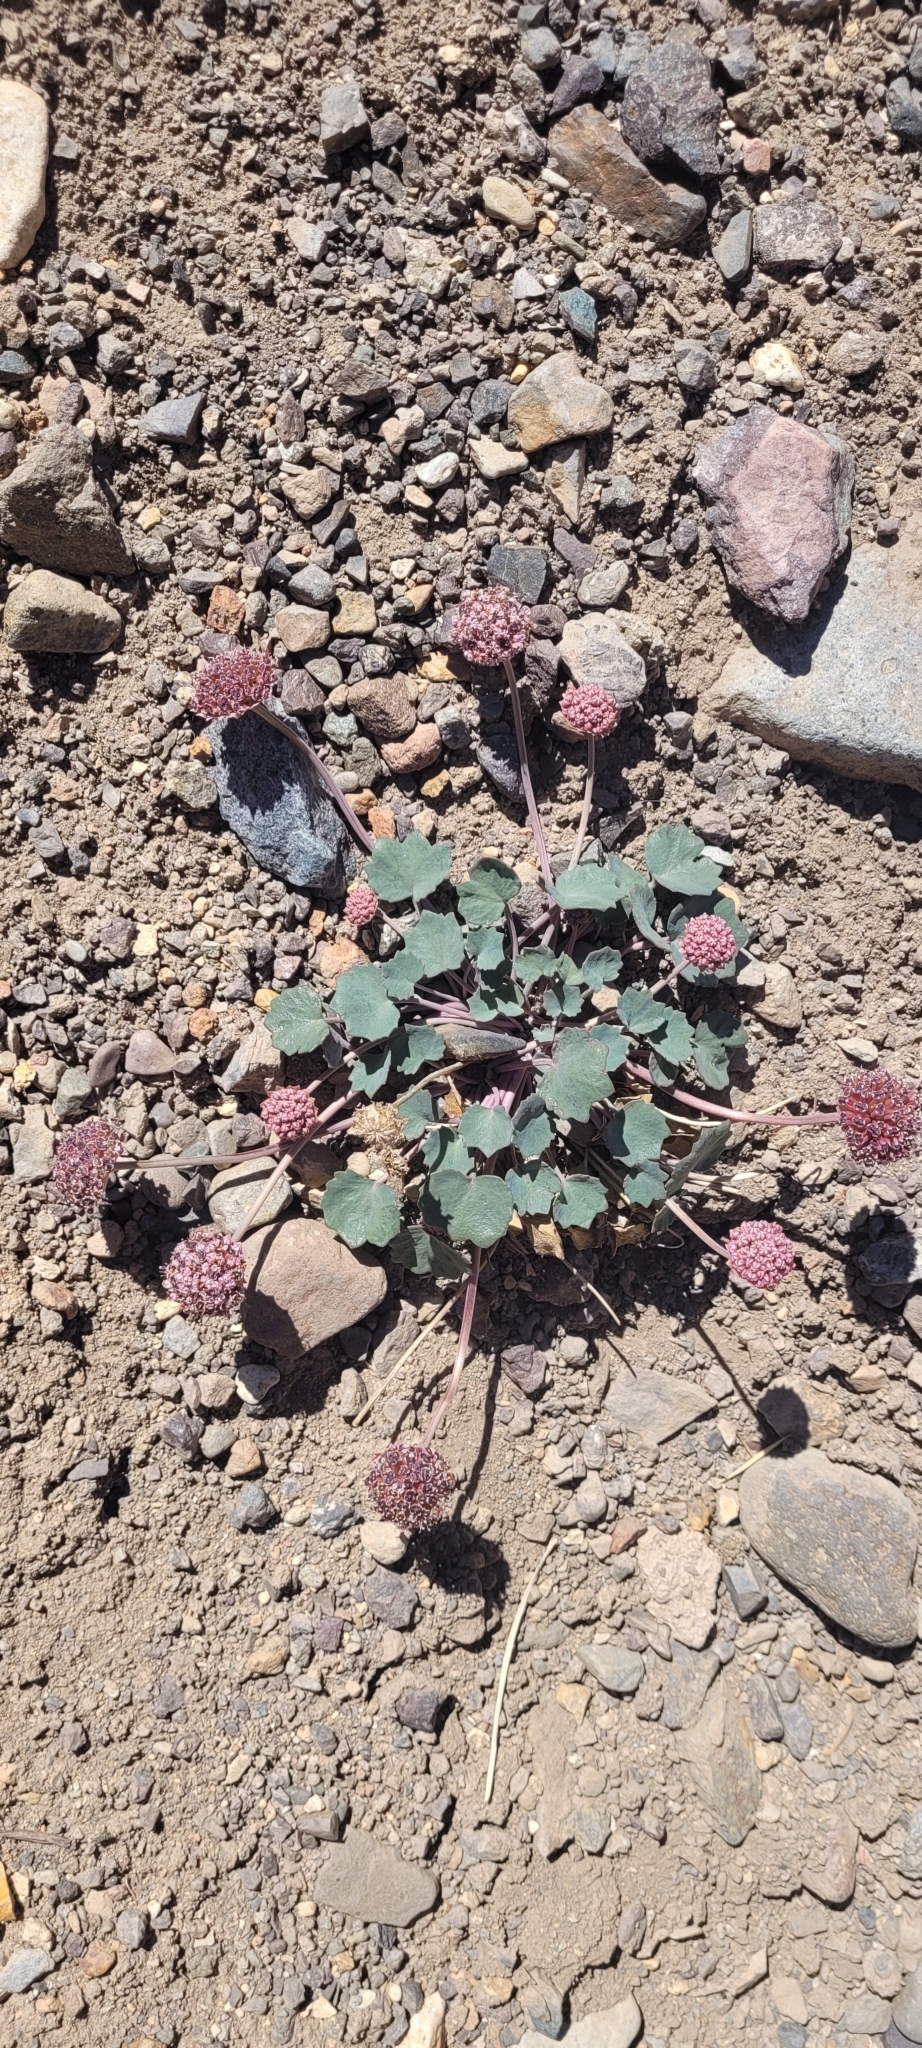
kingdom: Plantae
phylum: Tracheophyta
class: Magnoliopsida
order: Apiales
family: Apiaceae
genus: Pozoa
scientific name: Pozoa coriacea
